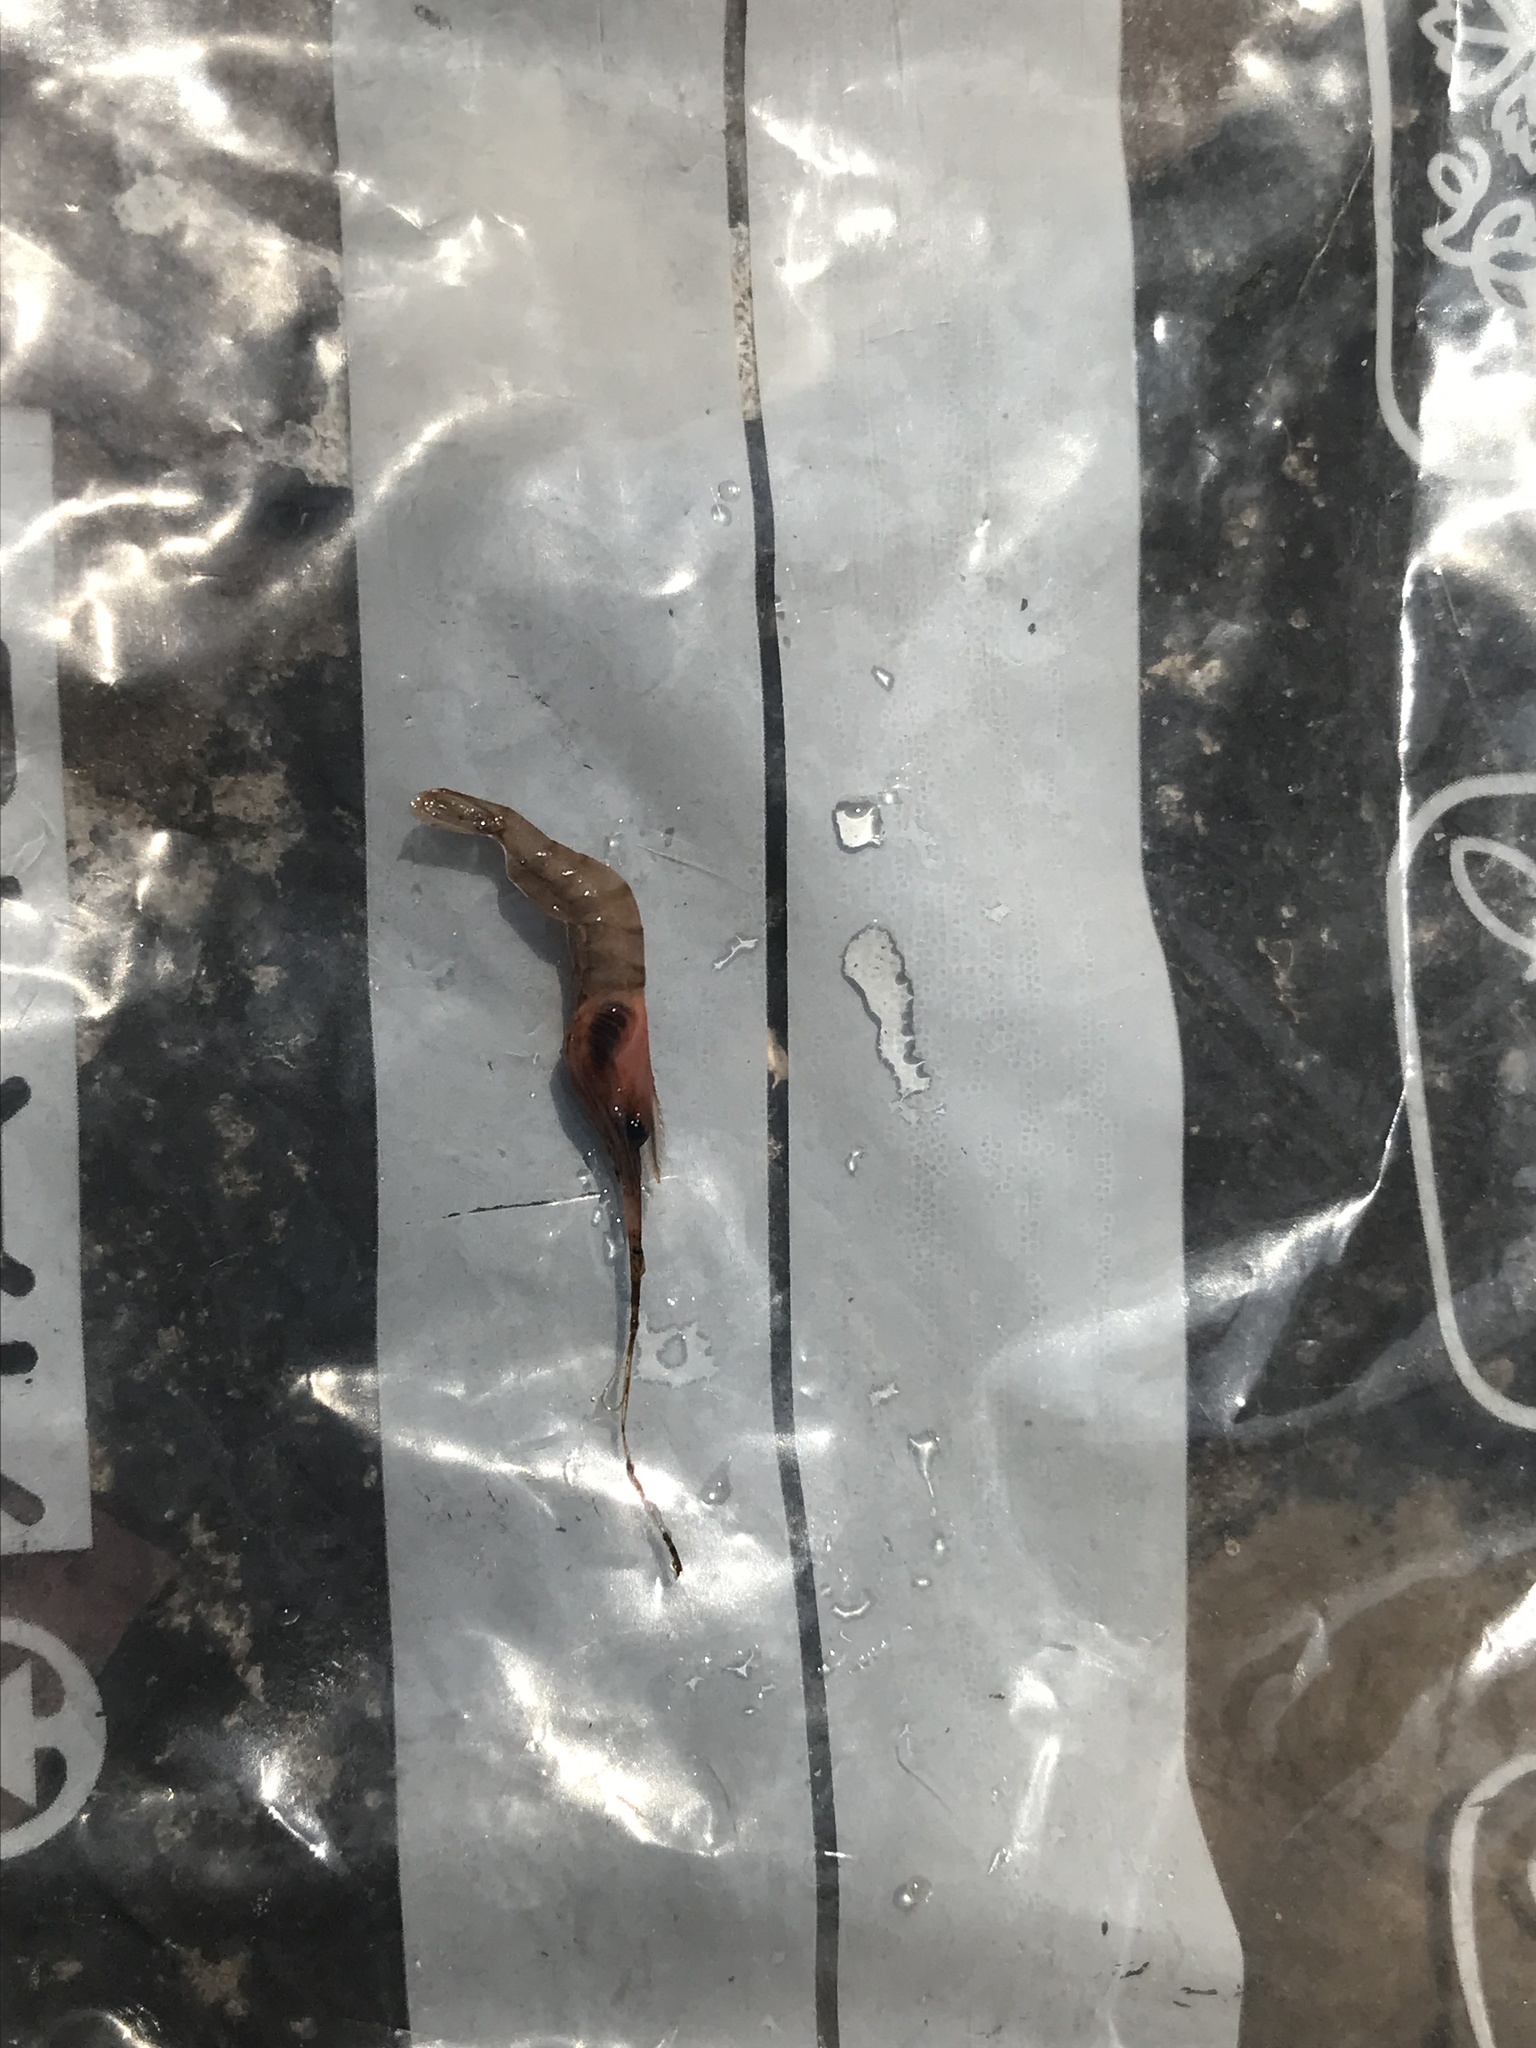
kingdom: Animalia
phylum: Arthropoda
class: Malacostraca
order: Decapoda
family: Palaemonidae
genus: Macrobrachium
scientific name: Macrobrachium moorei
